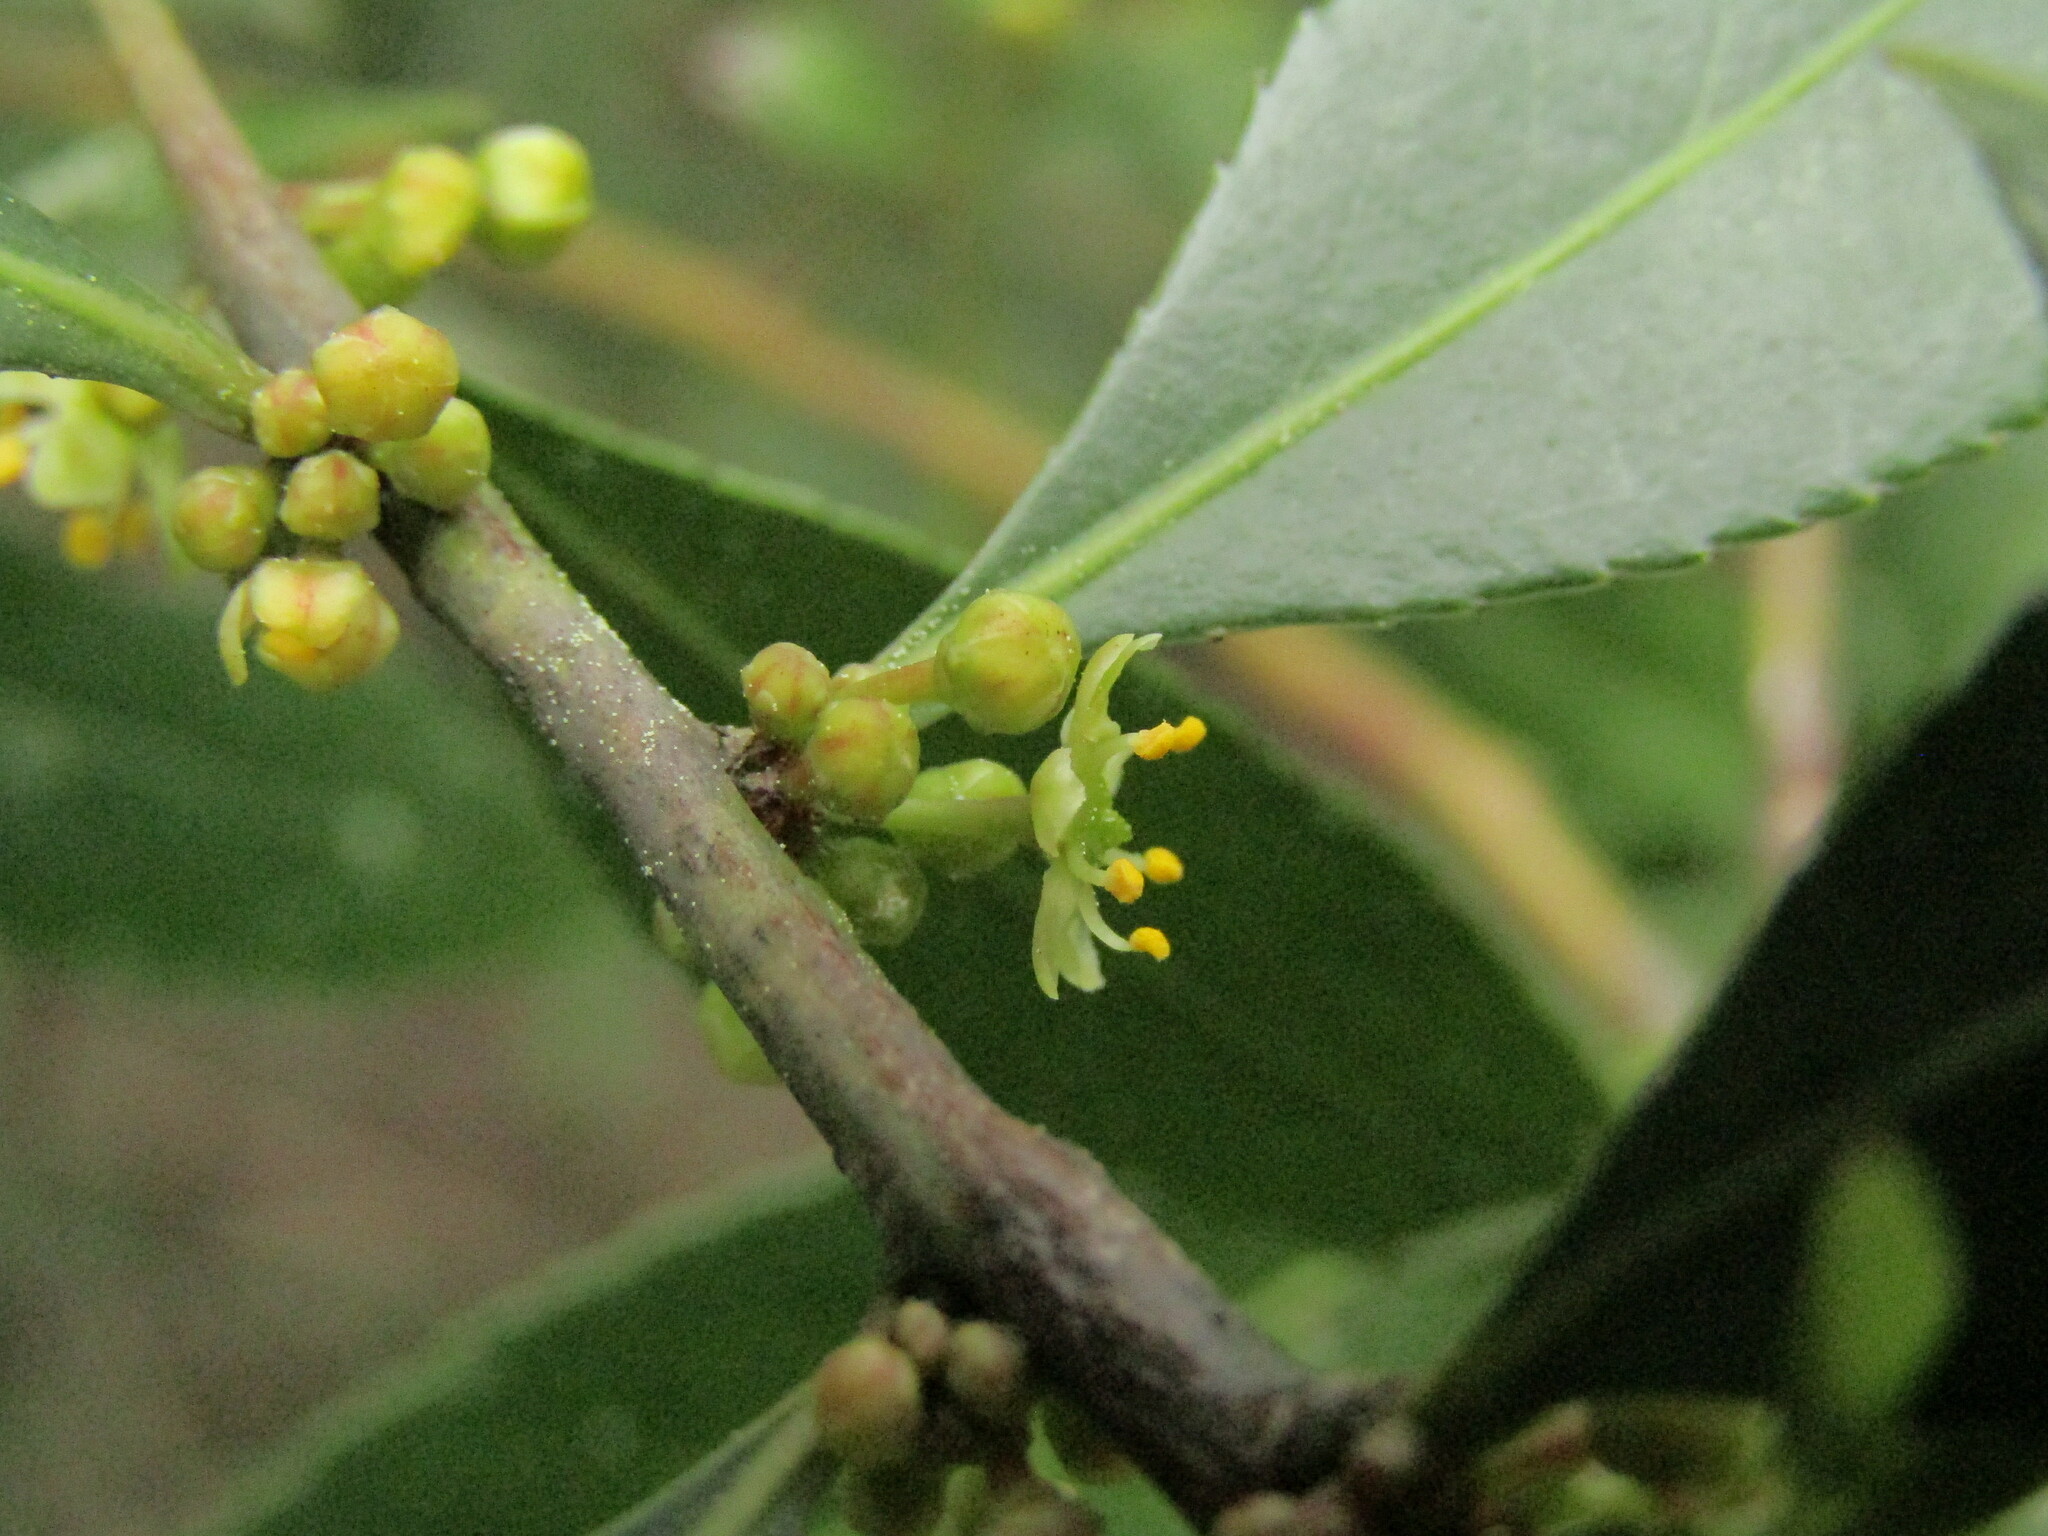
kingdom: Plantae
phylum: Tracheophyta
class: Magnoliopsida
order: Celastrales
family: Celastraceae
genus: Maytenus
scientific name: Maytenus boaria
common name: Mayten
